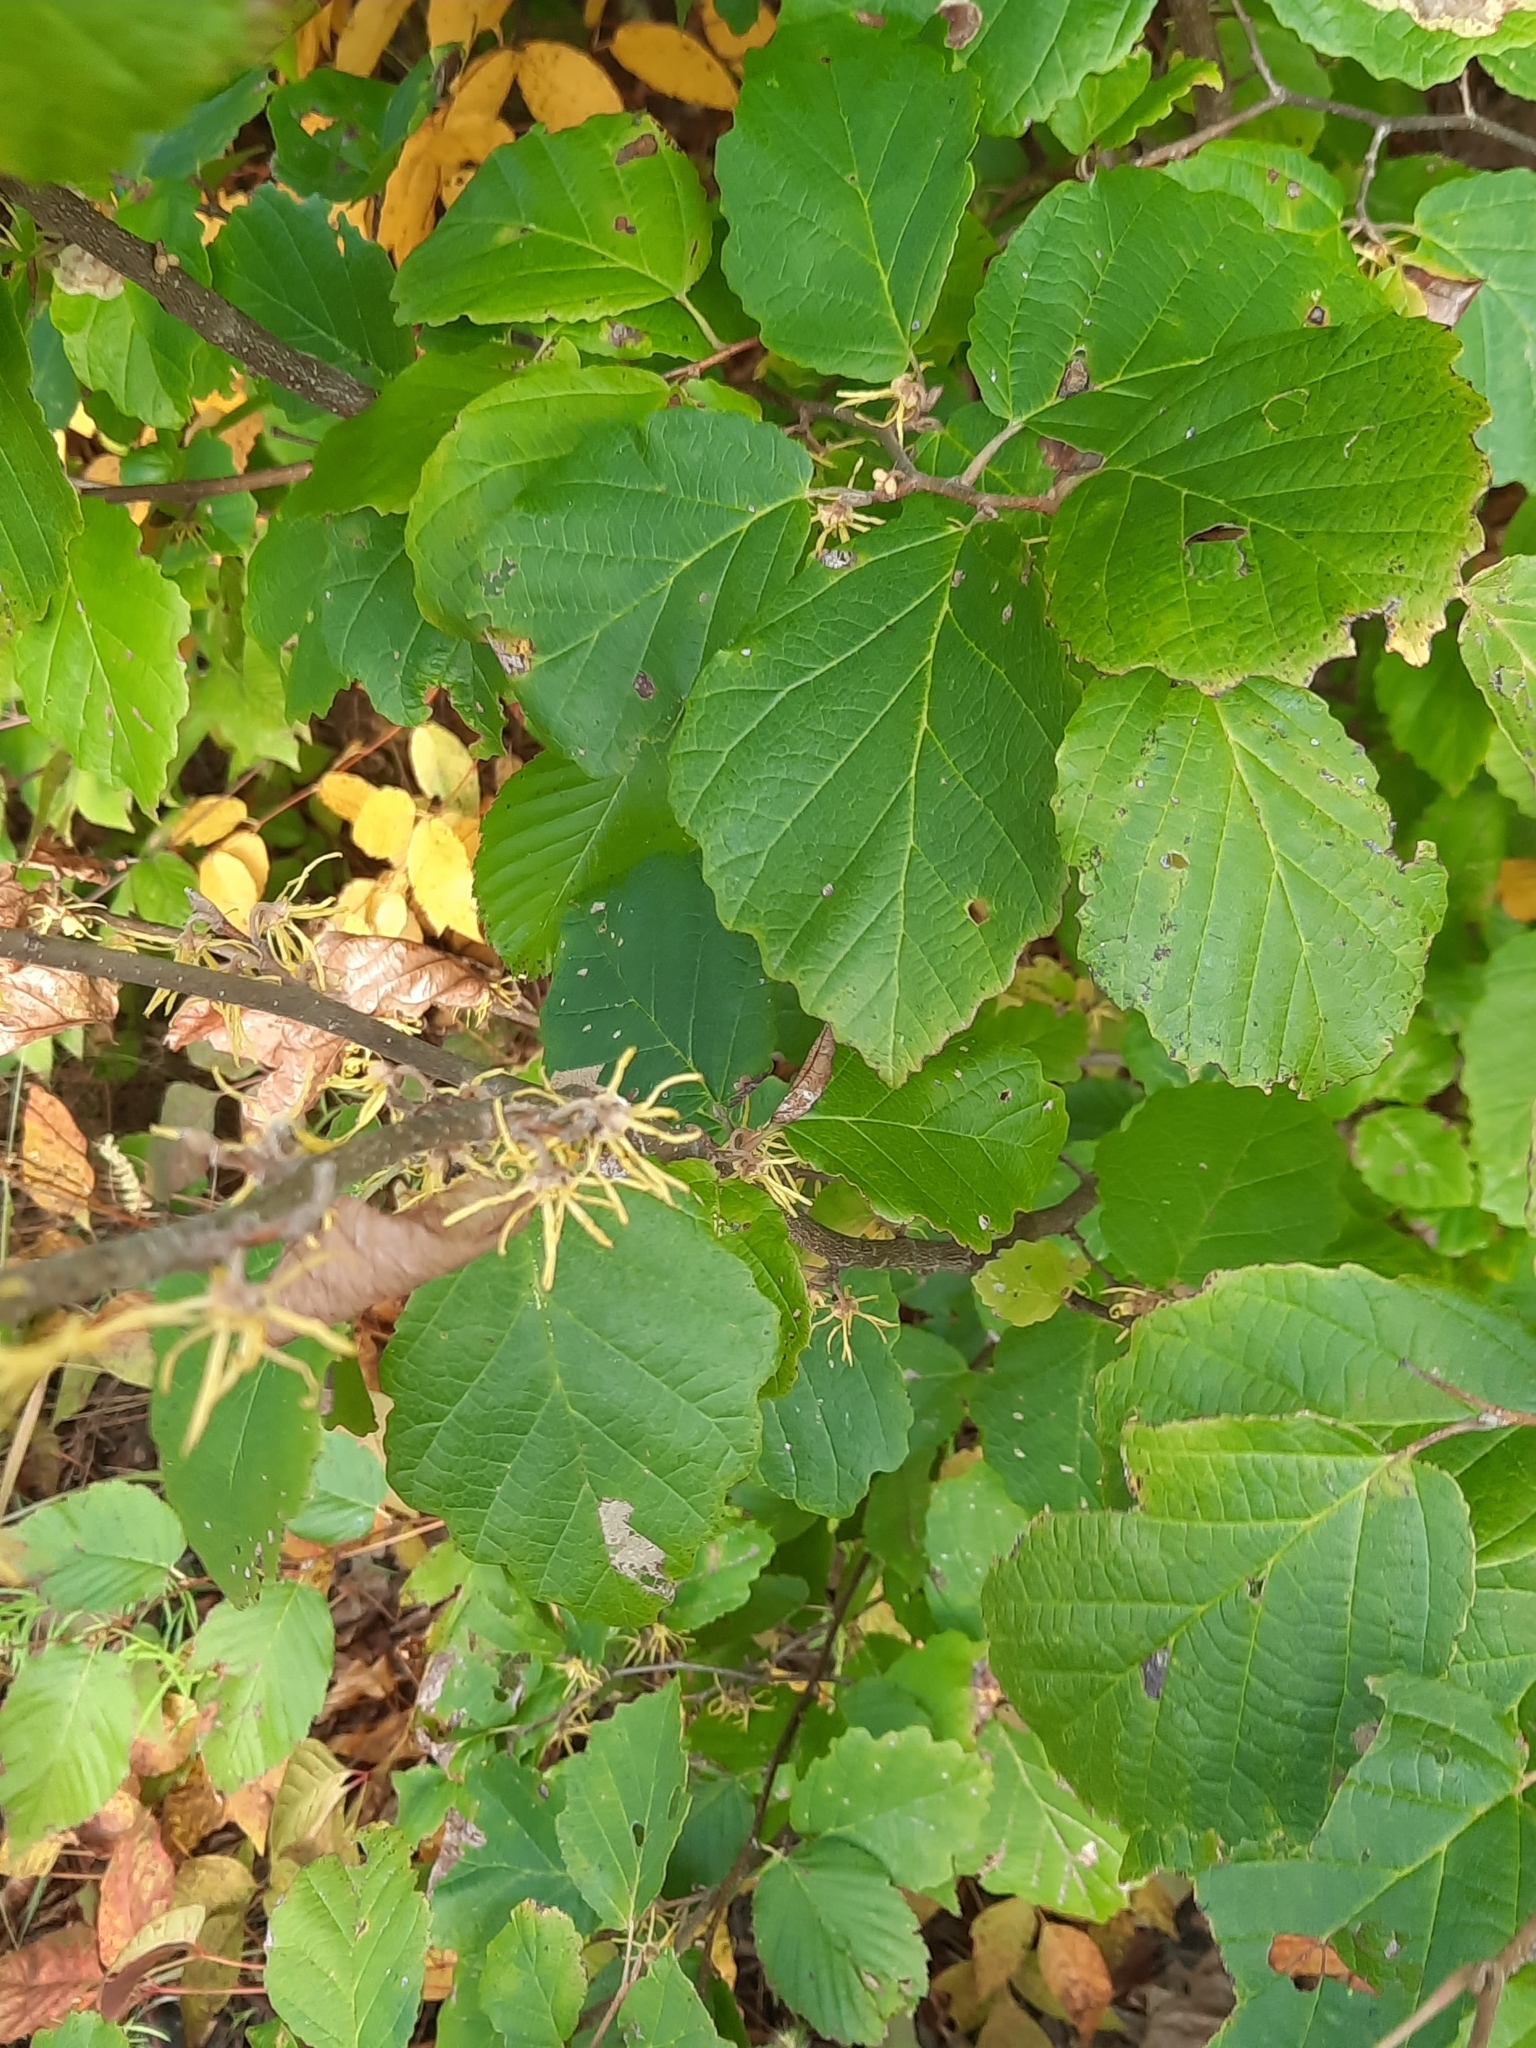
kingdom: Plantae
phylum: Tracheophyta
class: Magnoliopsida
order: Saxifragales
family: Hamamelidaceae
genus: Hamamelis
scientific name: Hamamelis virginiana
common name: Witch-hazel
